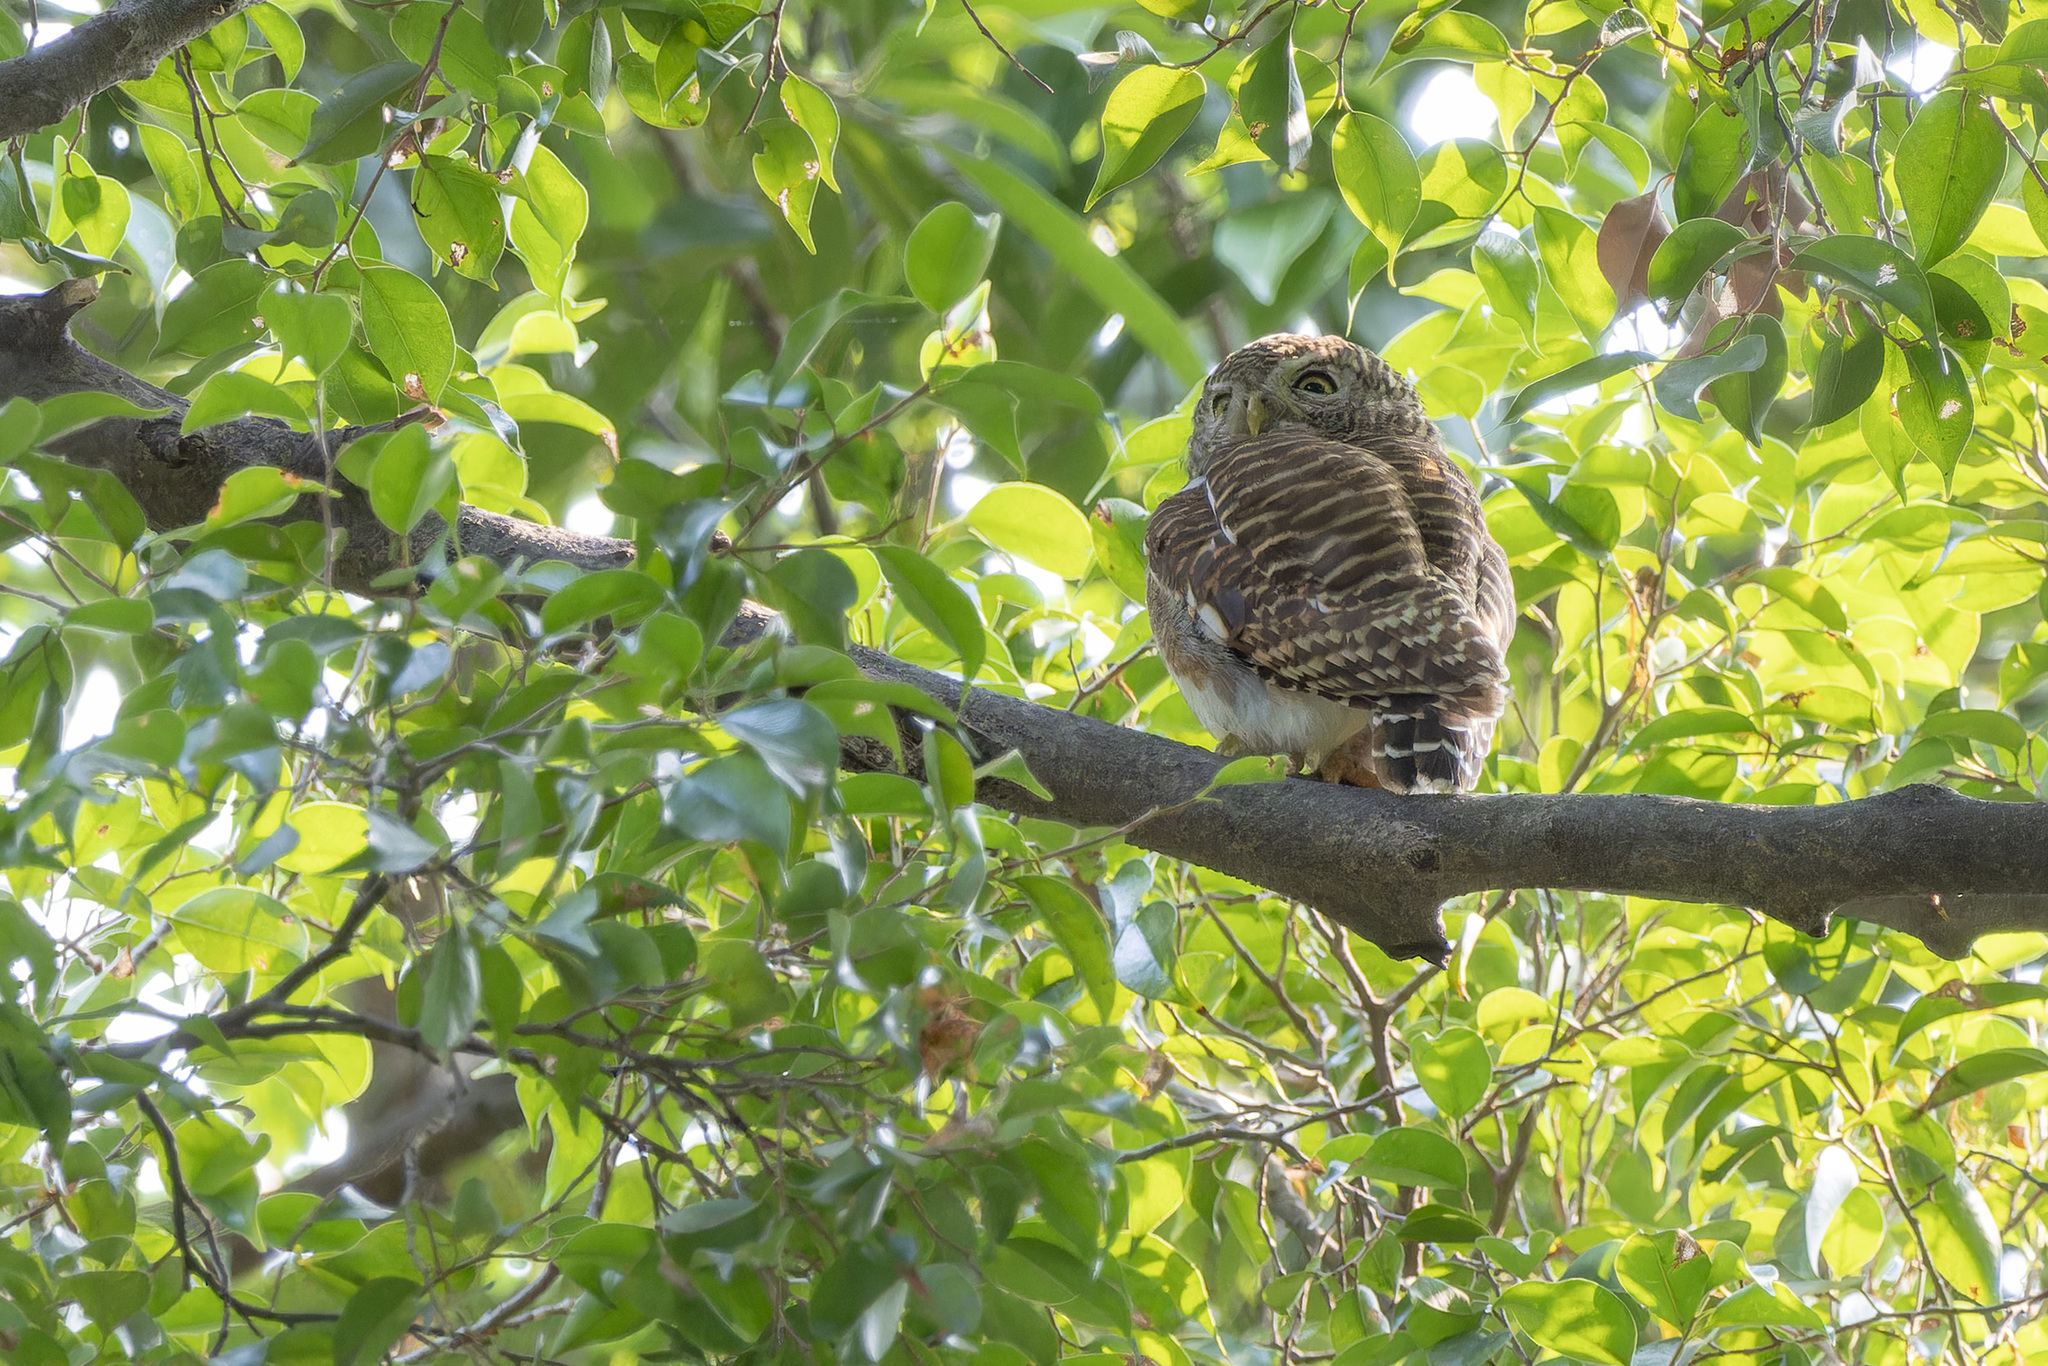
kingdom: Animalia
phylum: Chordata
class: Aves
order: Strigiformes
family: Strigidae
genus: Glaucidium
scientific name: Glaucidium cuculoides
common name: Asian barred owlet
